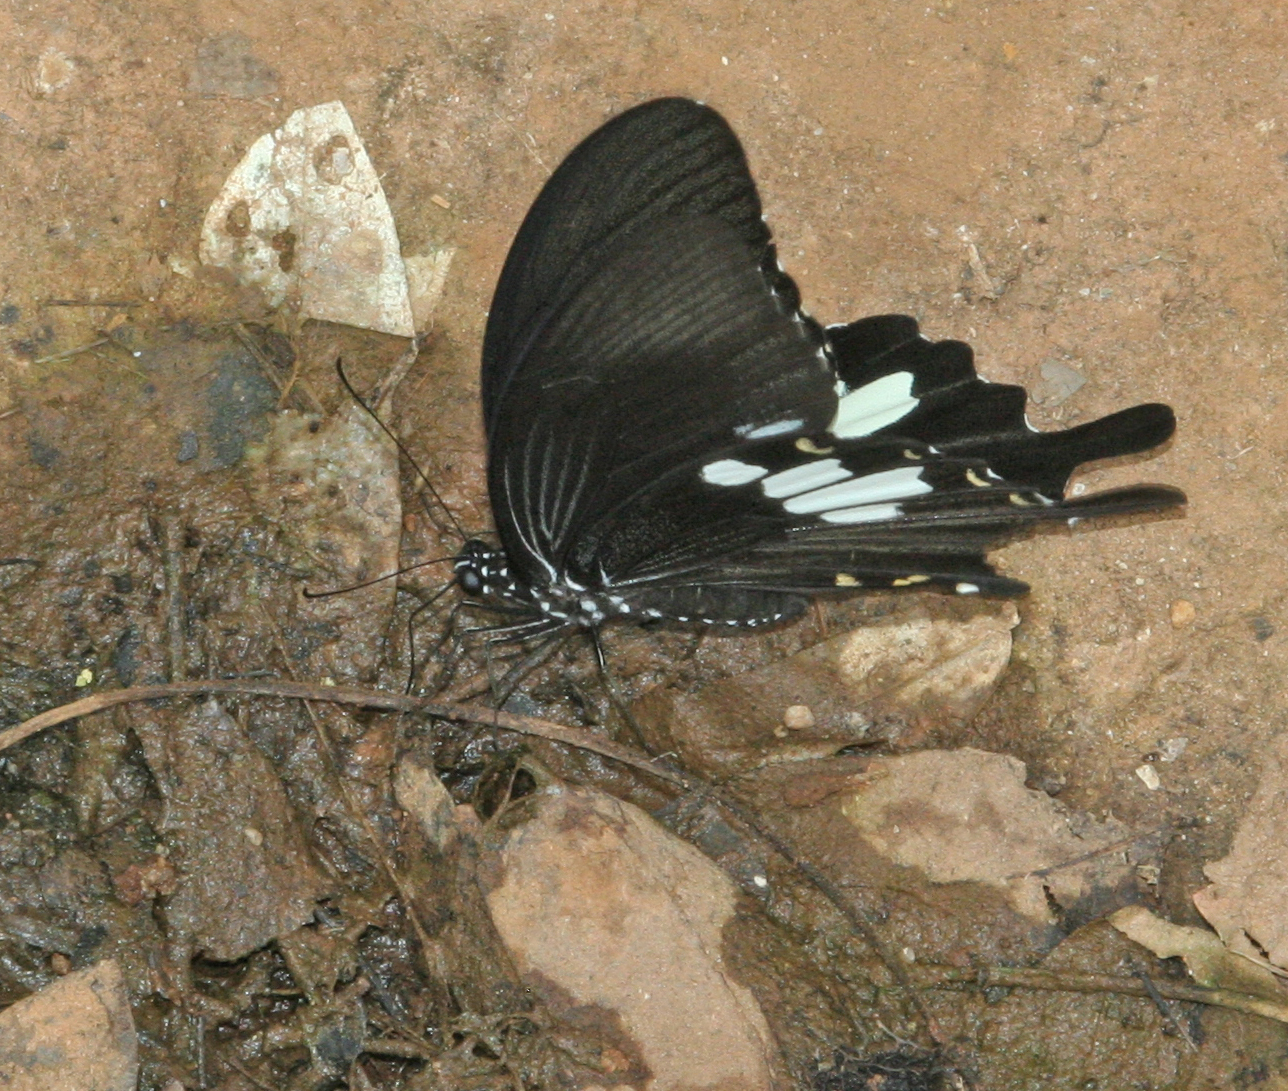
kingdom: Animalia
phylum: Arthropoda
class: Insecta
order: Lepidoptera
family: Papilionidae
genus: Atrophaneura
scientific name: Atrophaneura varuna
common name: Common batwing
